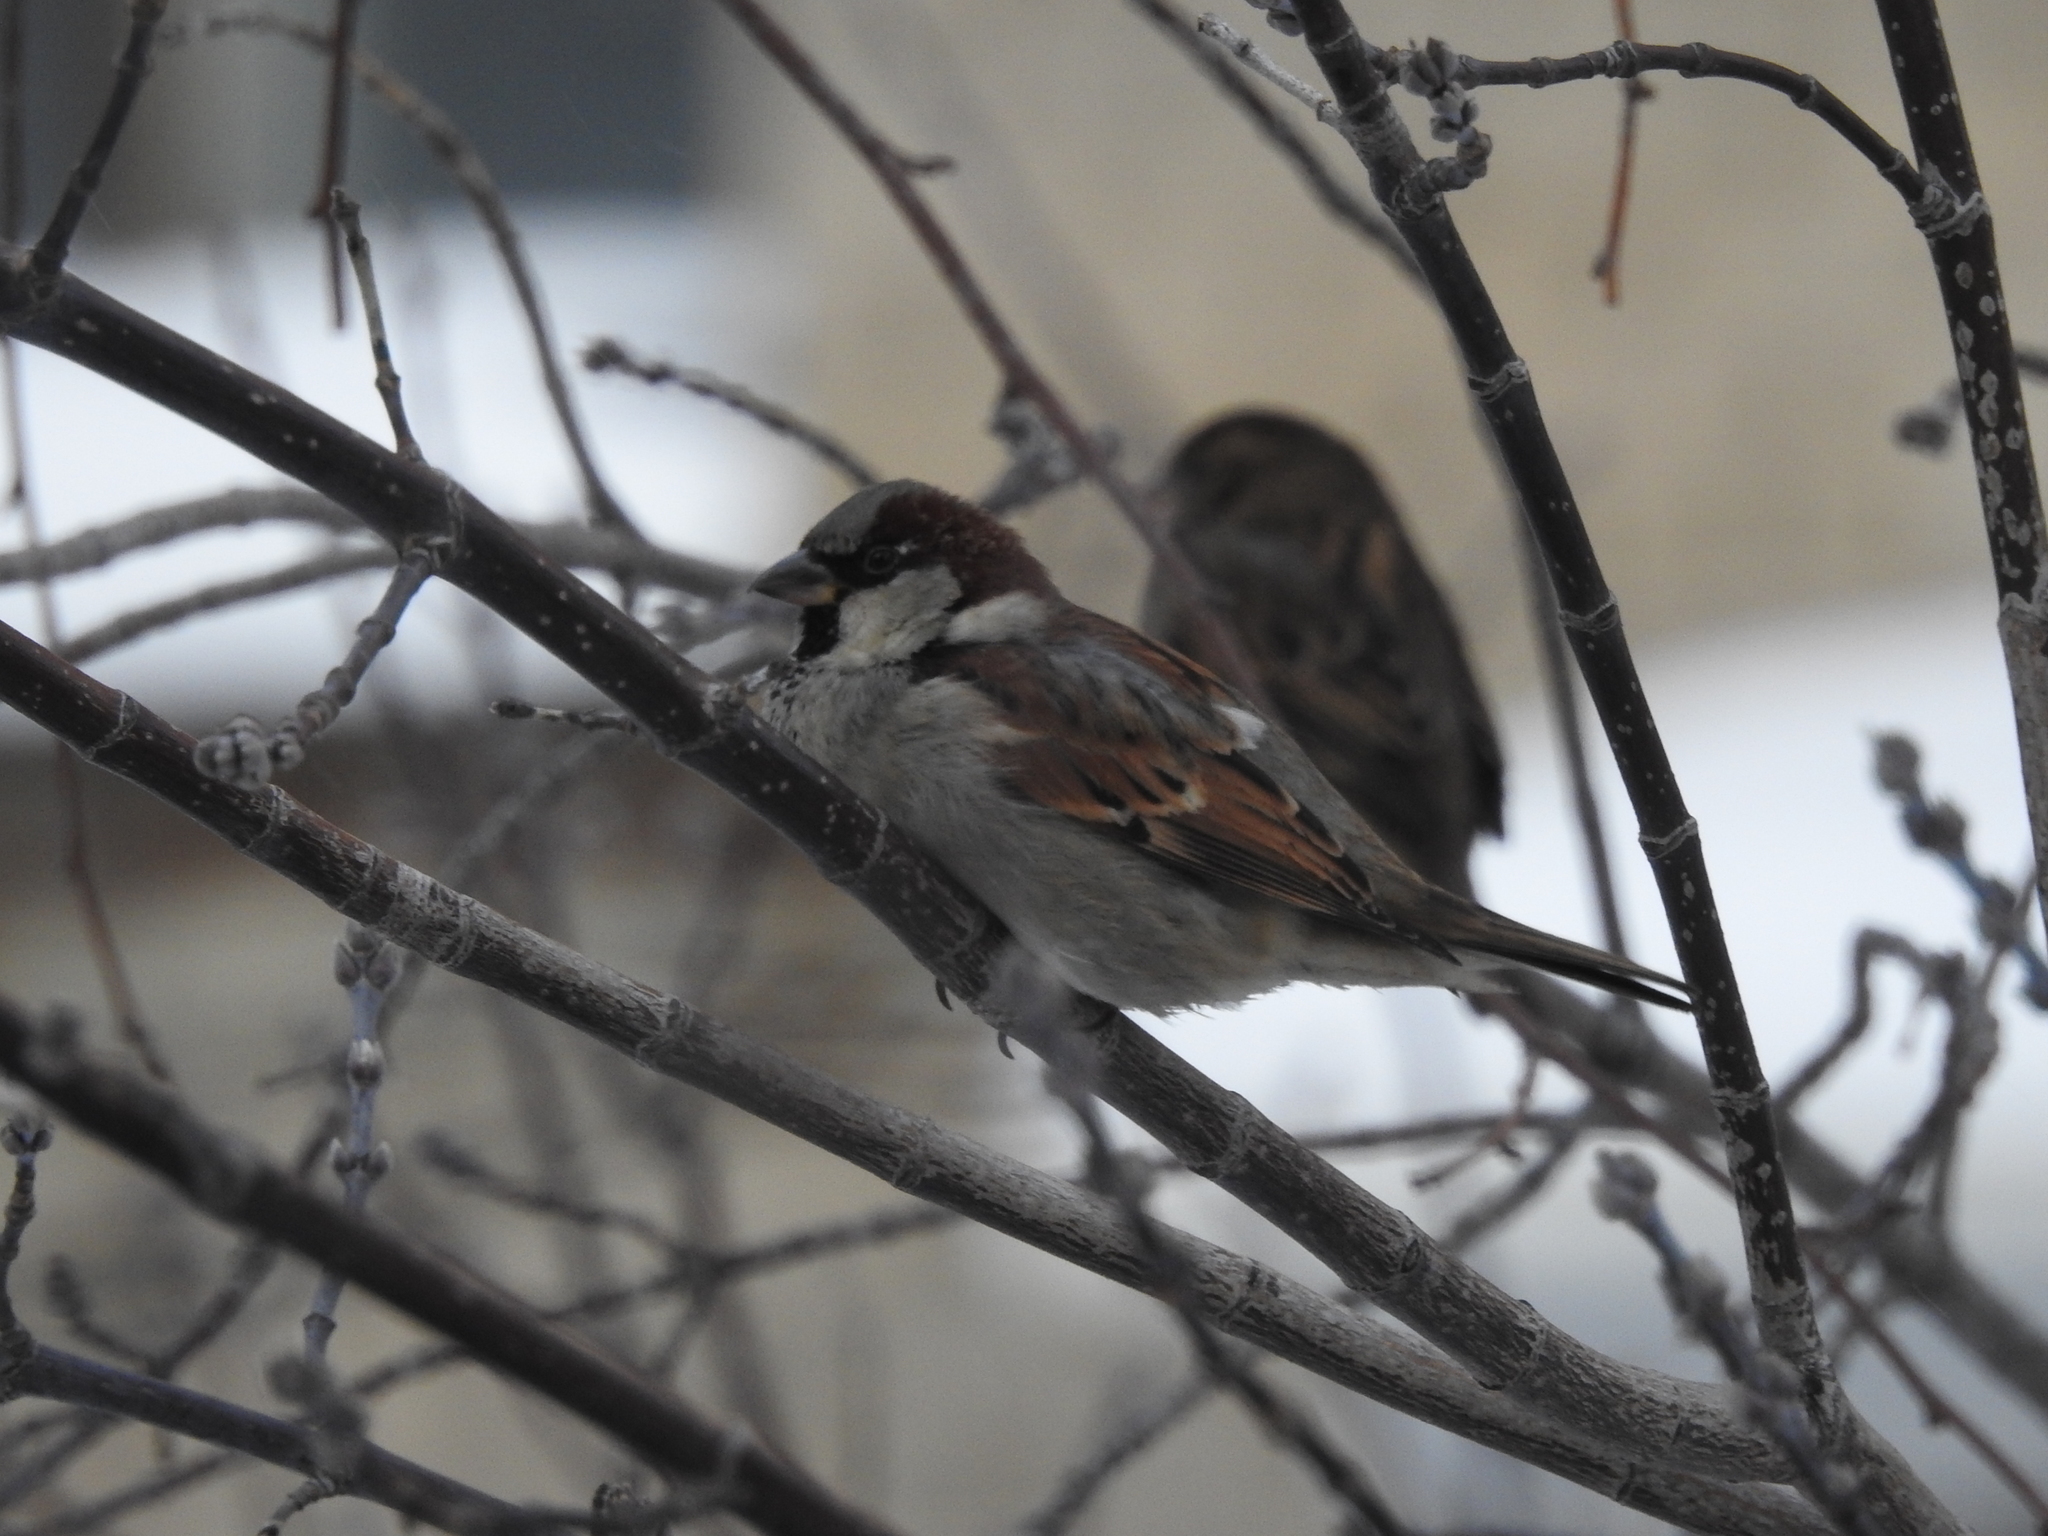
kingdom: Animalia
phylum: Chordata
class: Aves
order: Passeriformes
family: Passeridae
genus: Passer
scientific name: Passer domesticus
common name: House sparrow
